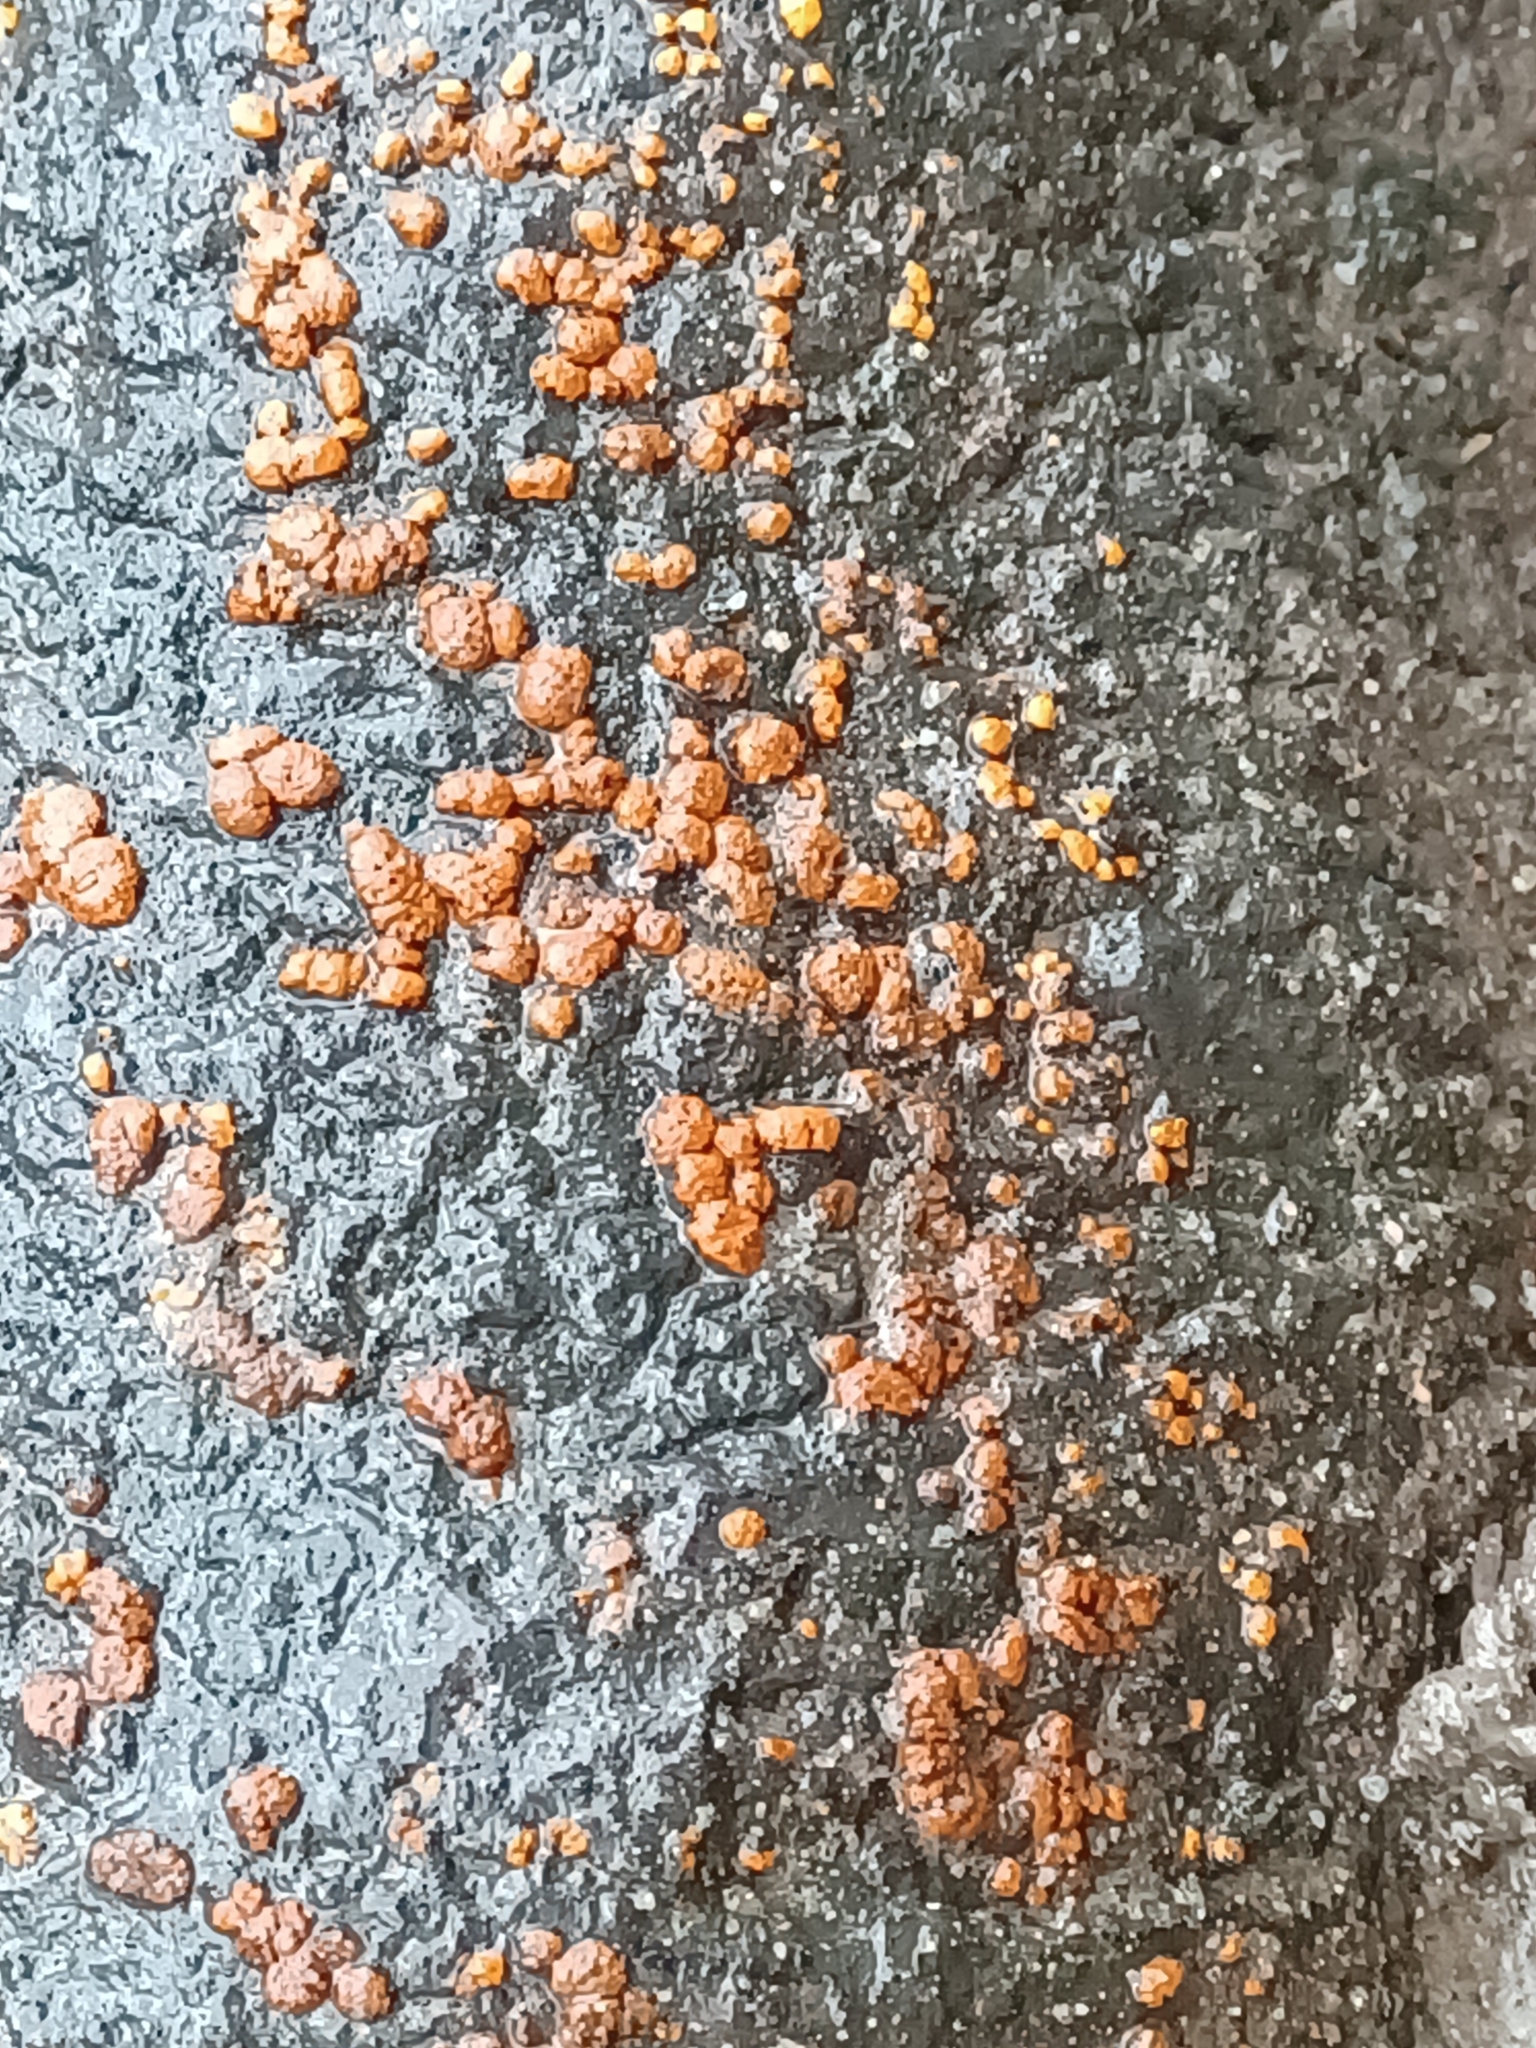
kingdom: Fungi
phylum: Ascomycota
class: Sordariomycetes
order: Diaporthales
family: Cryphonectriaceae
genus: Amphilogia
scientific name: Amphilogia gyrosa
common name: Orange hobnail canker
